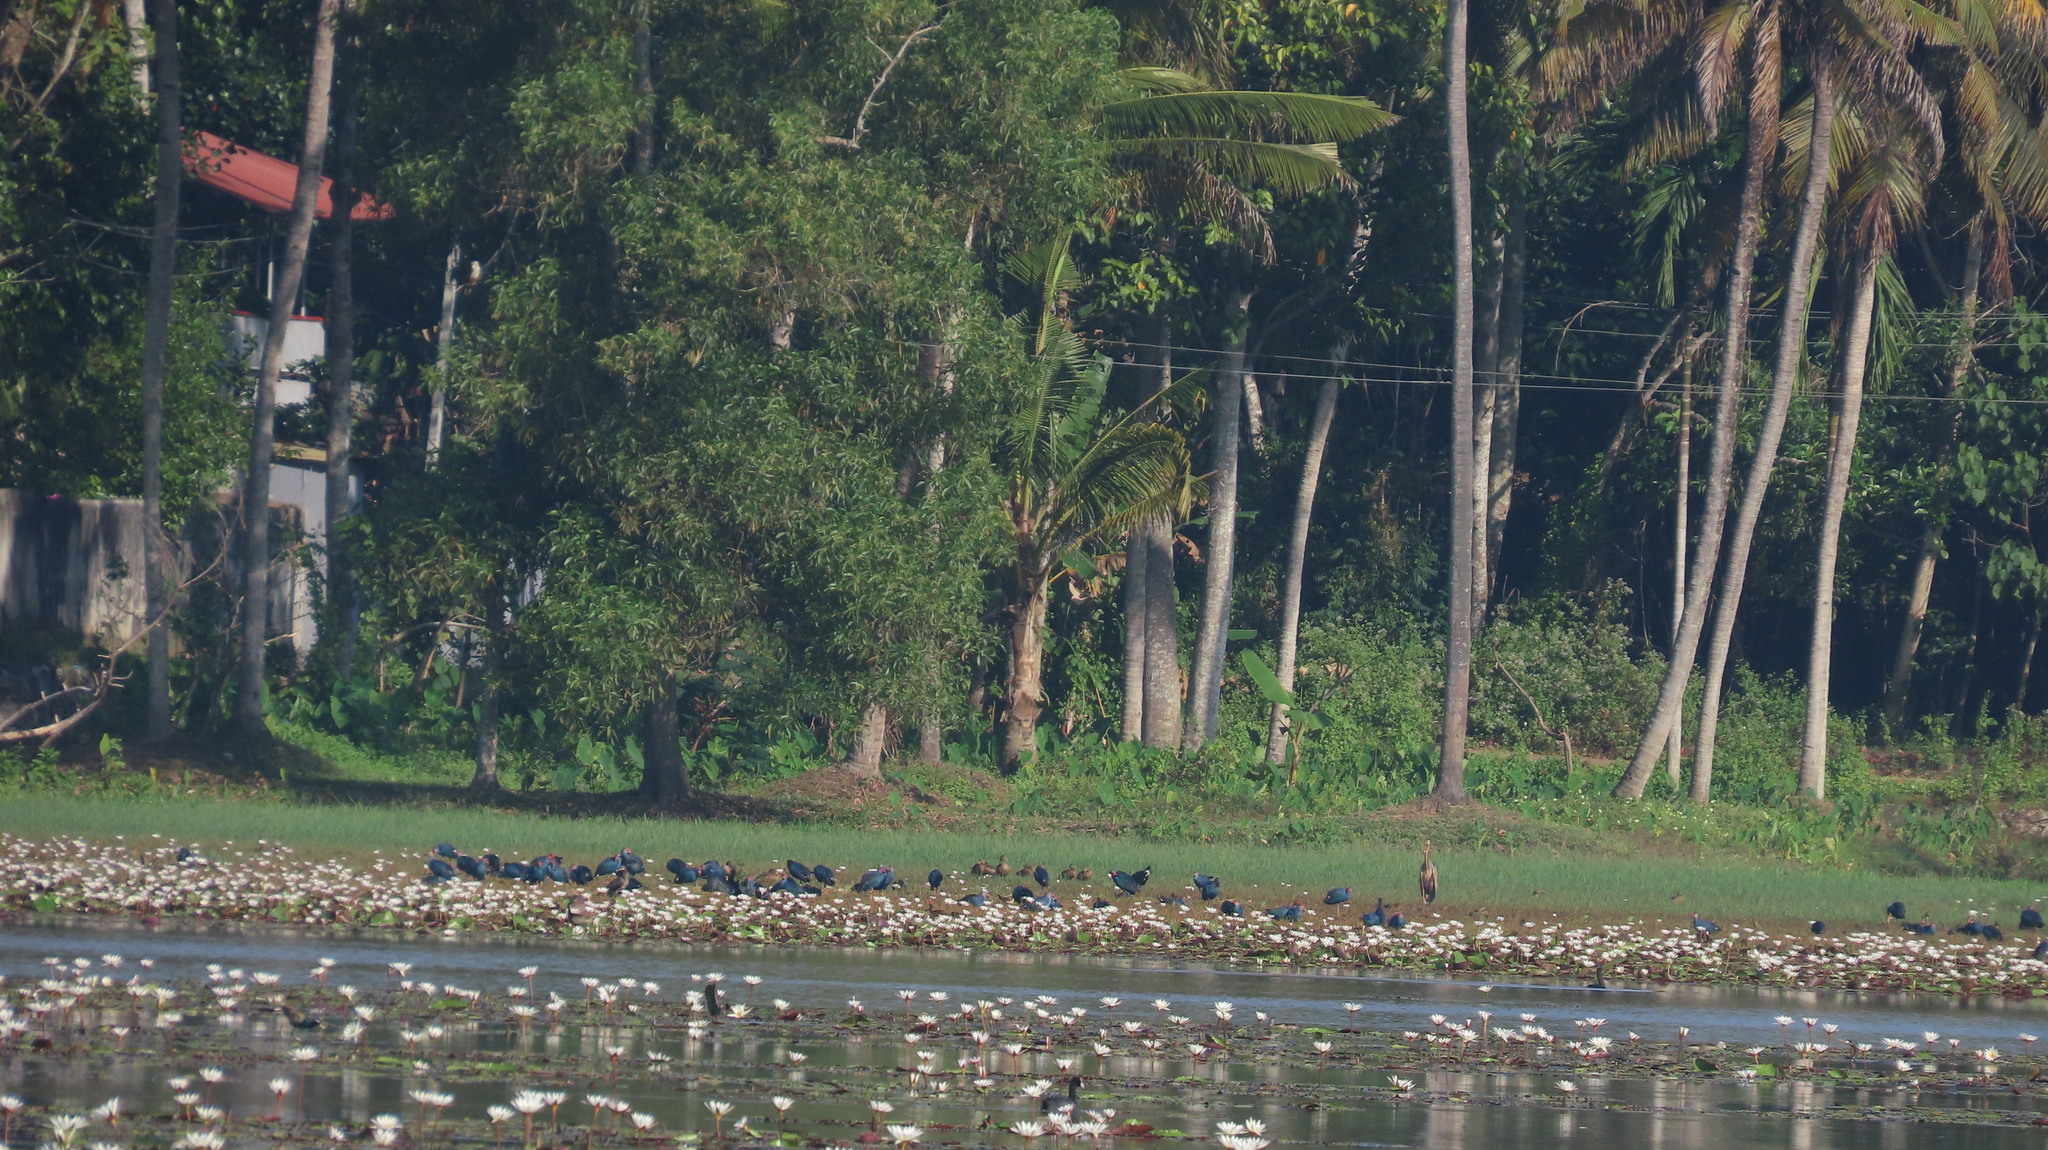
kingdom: Animalia
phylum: Chordata
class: Aves
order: Anseriformes
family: Anatidae
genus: Dendrocygna
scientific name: Dendrocygna javanica
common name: Lesser whistling-duck
